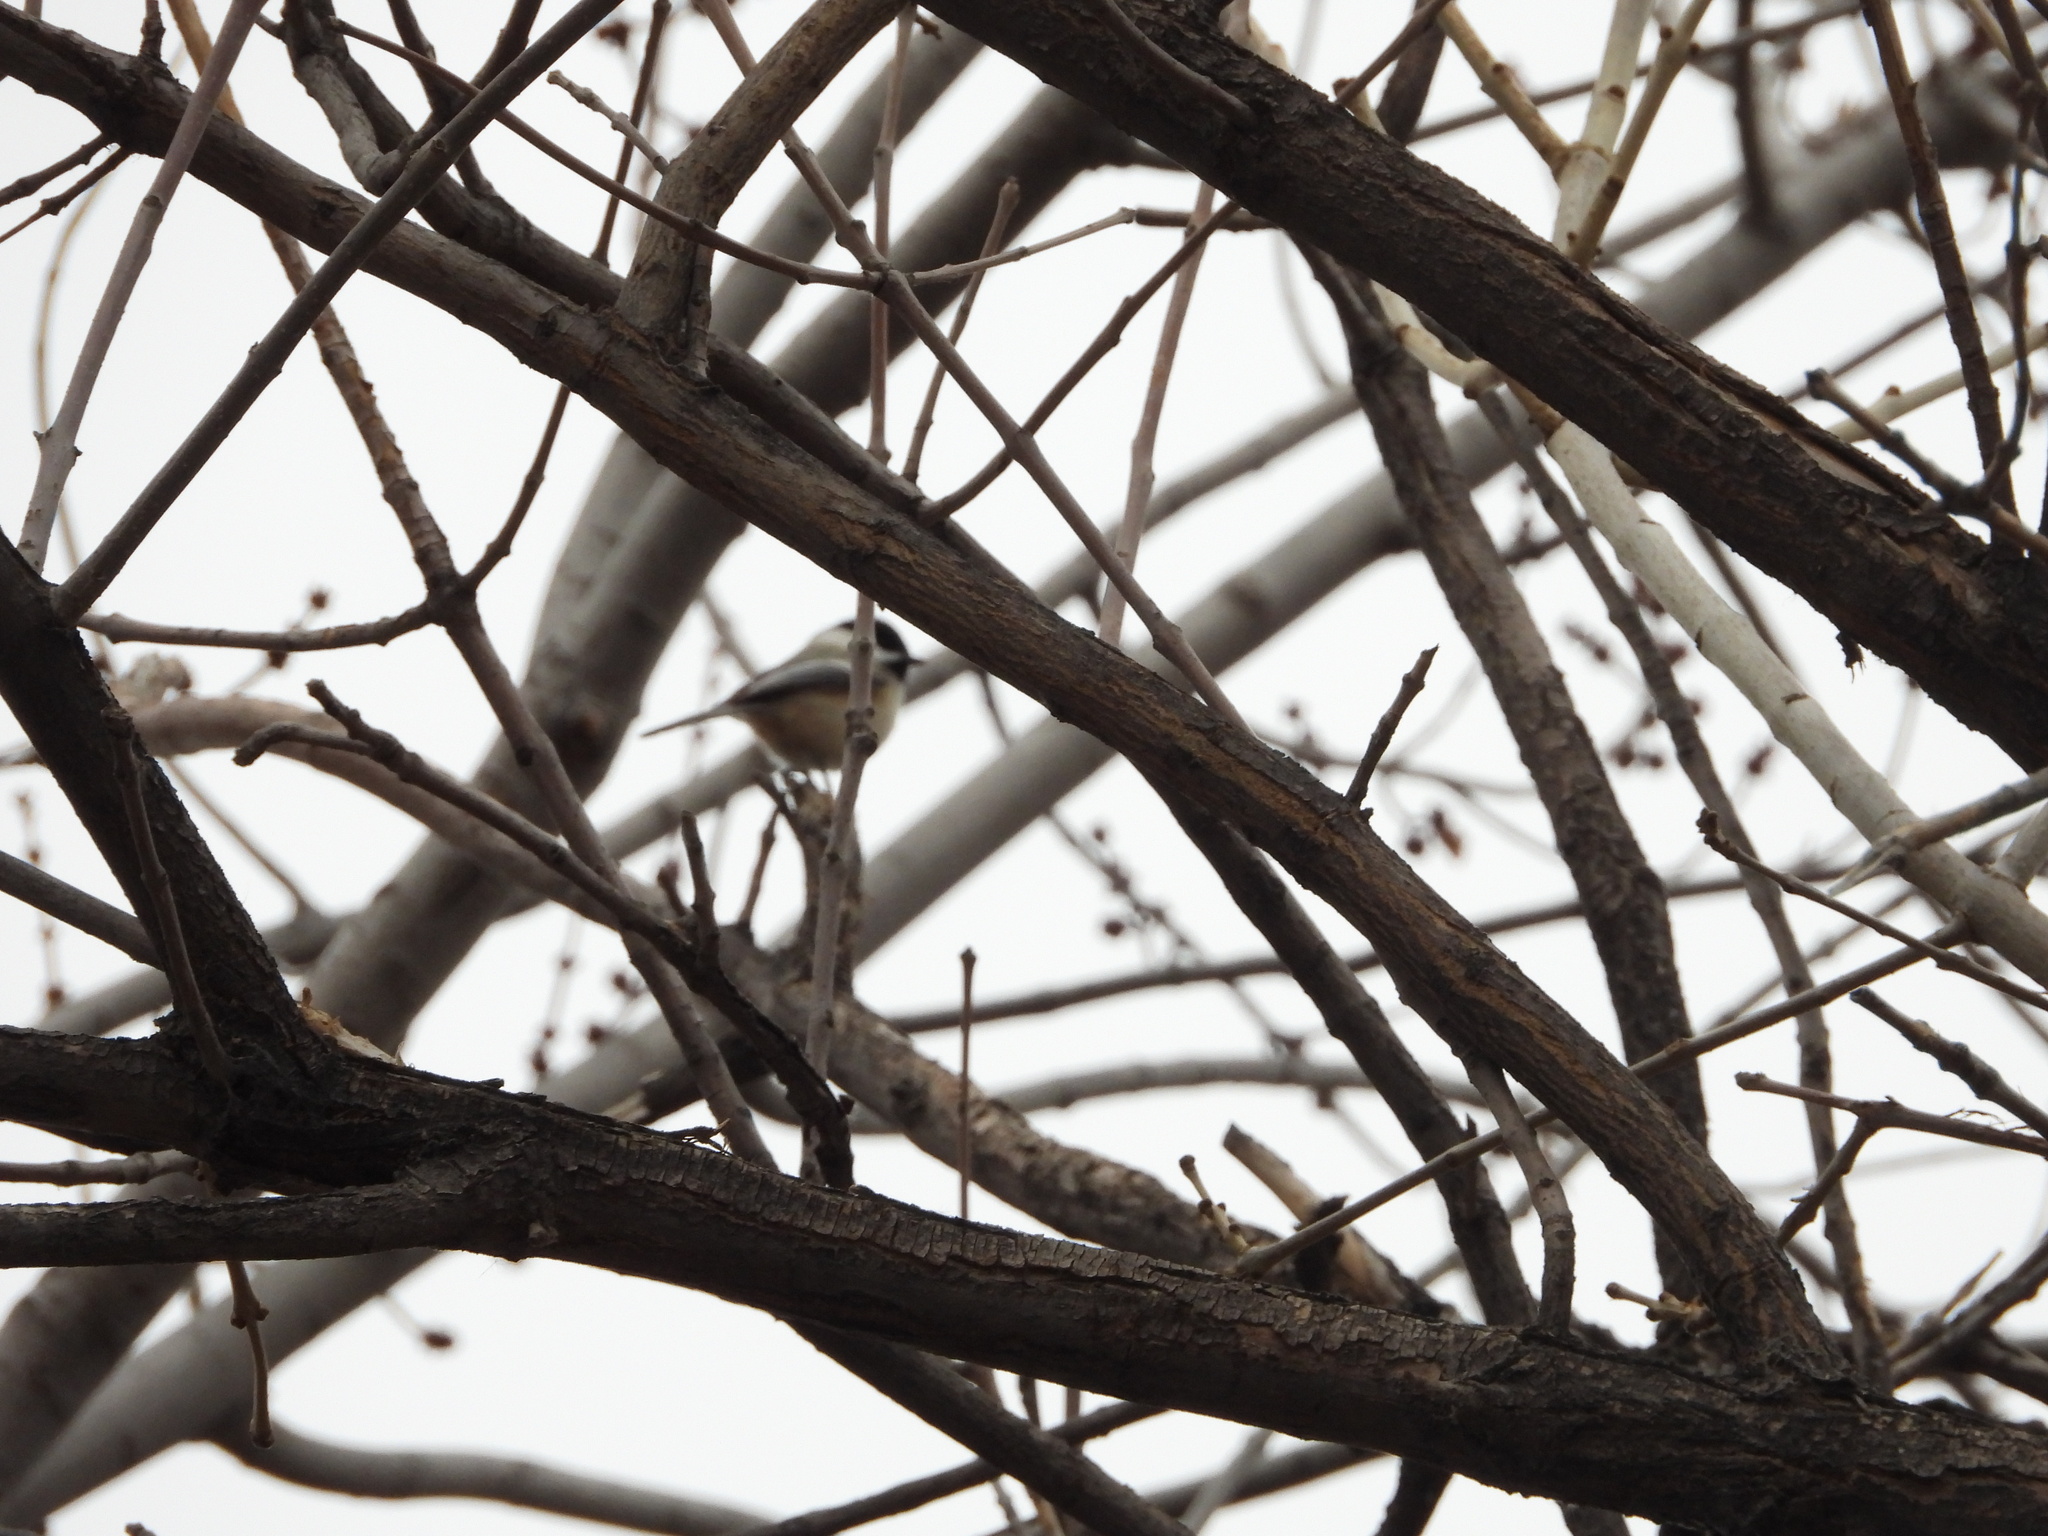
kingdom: Animalia
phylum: Chordata
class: Aves
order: Passeriformes
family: Paridae
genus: Poecile
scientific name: Poecile atricapillus
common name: Black-capped chickadee
